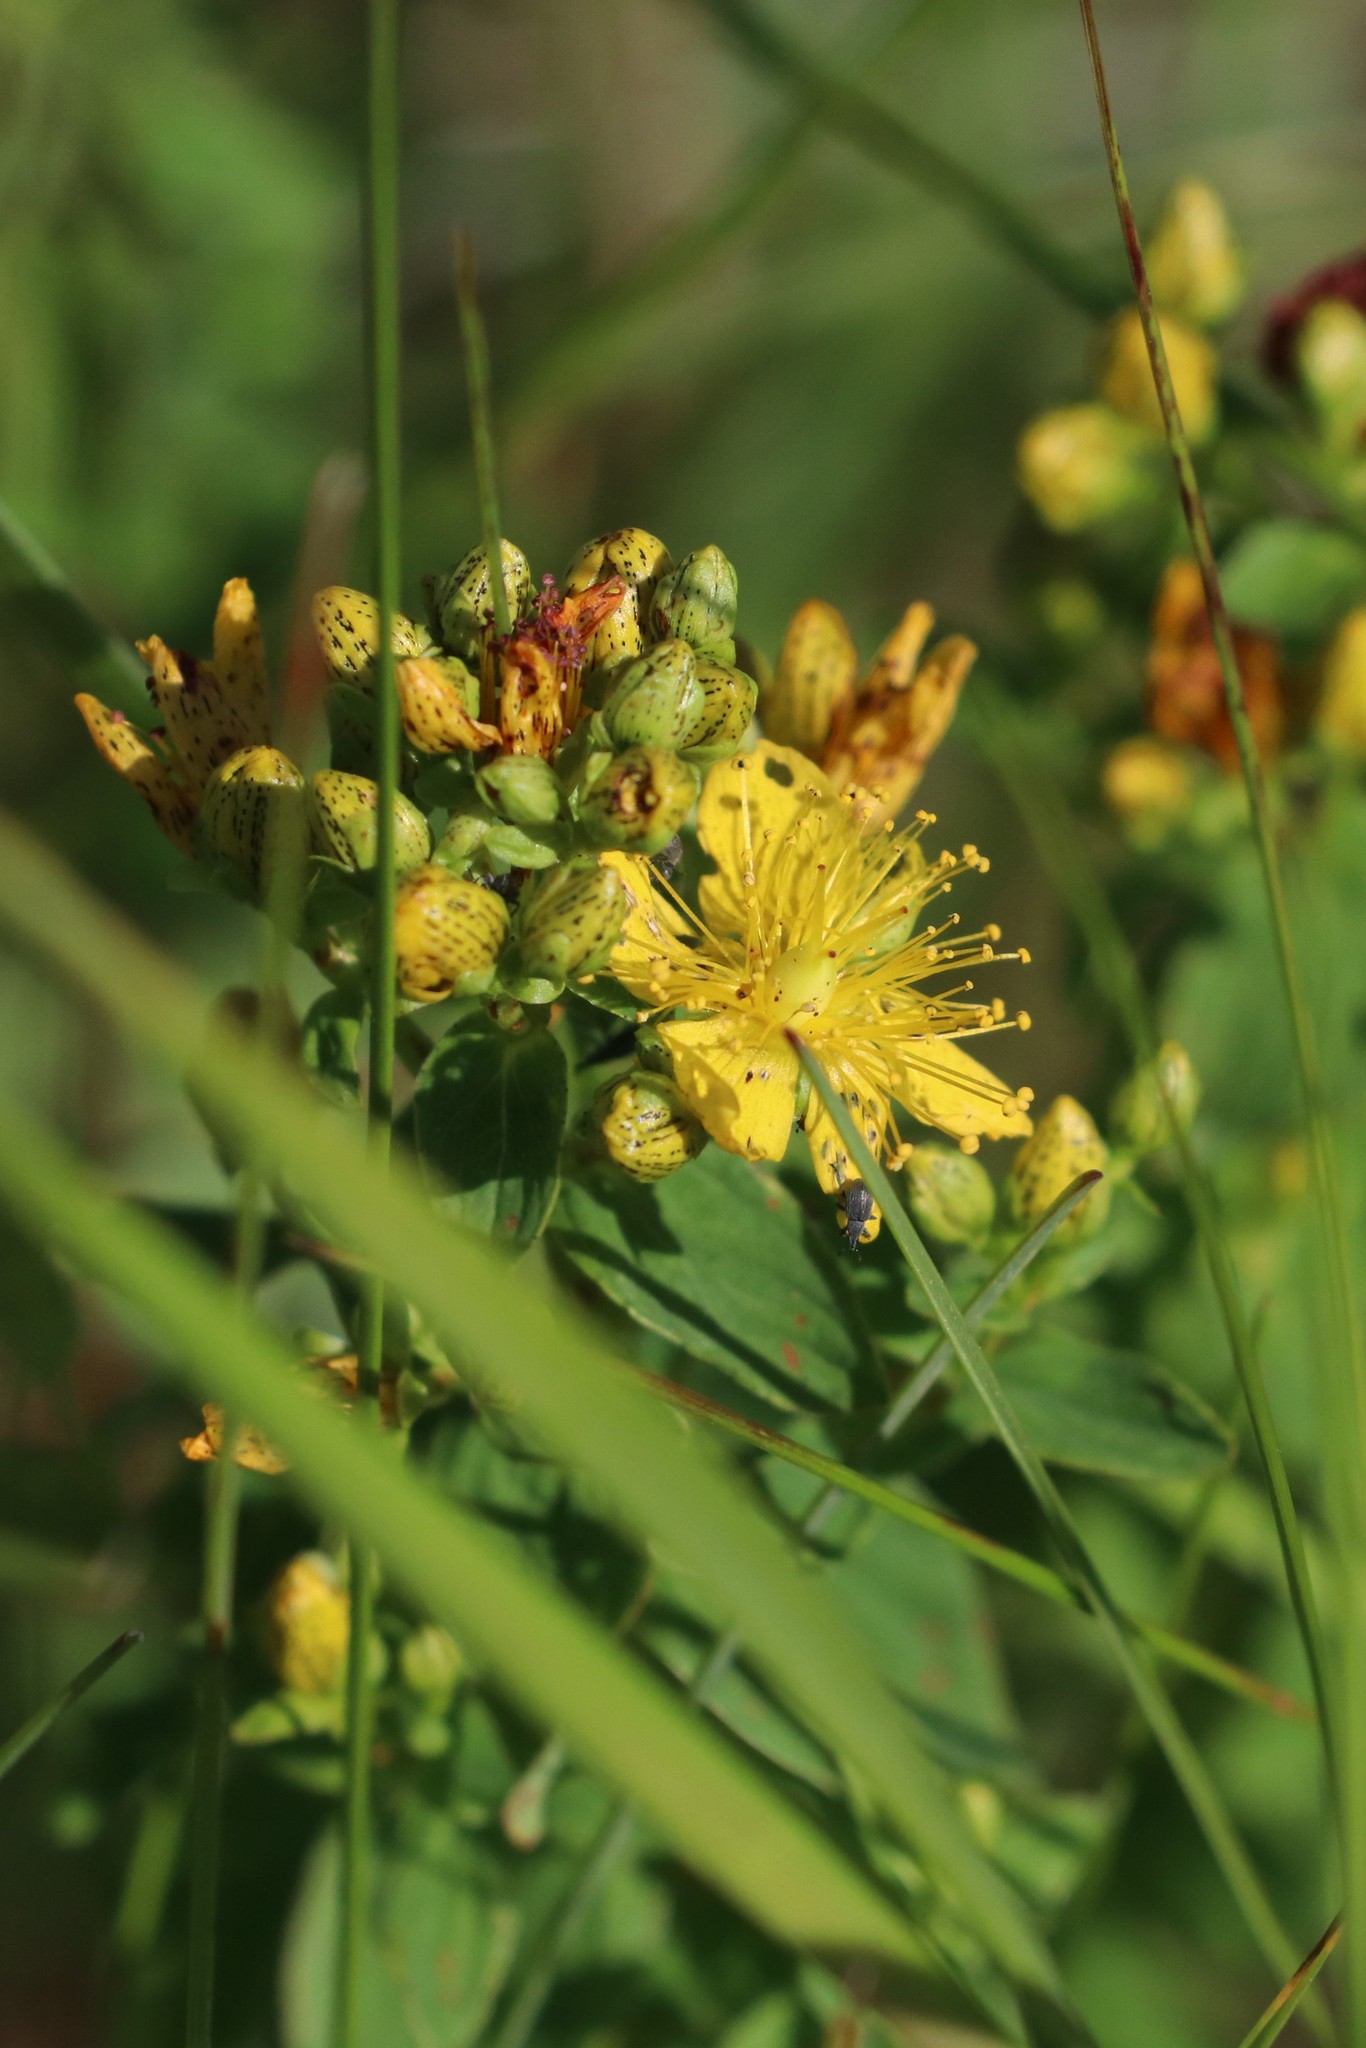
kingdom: Plantae
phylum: Tracheophyta
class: Magnoliopsida
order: Malpighiales
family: Hypericaceae
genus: Hypericum
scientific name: Hypericum maculatum
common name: Imperforate st. john's-wort
